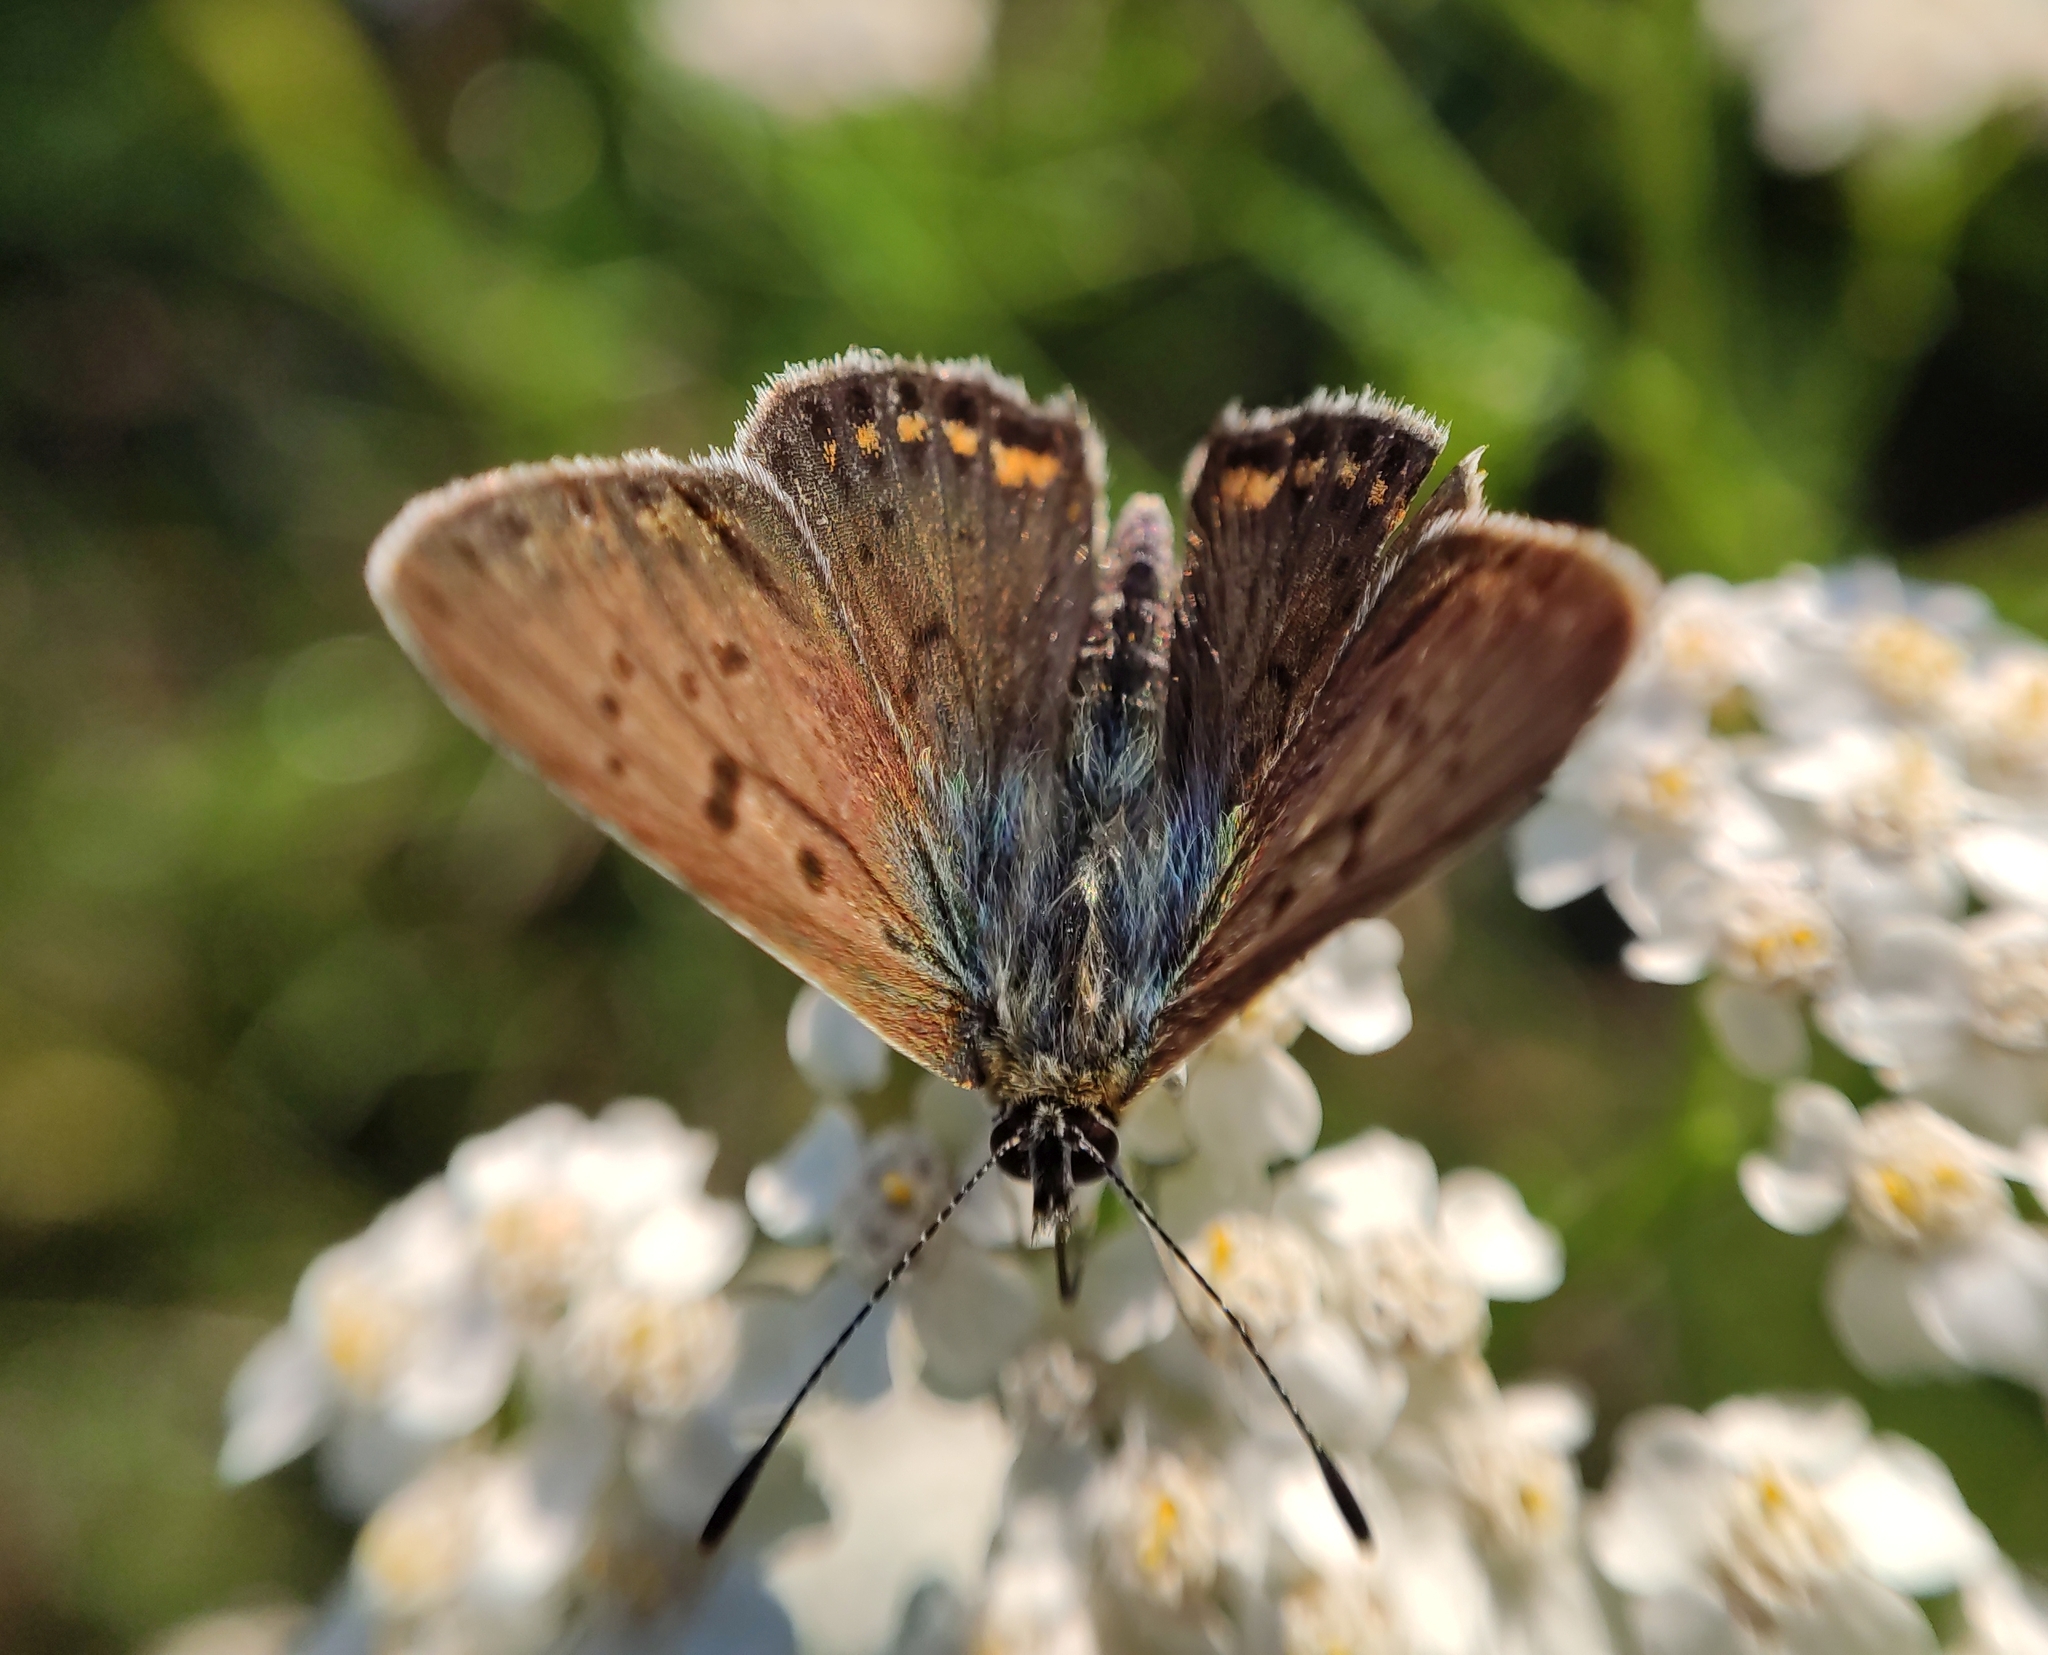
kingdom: Animalia
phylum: Arthropoda
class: Insecta
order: Lepidoptera
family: Lycaenidae
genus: Loweia
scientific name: Loweia tityrus
